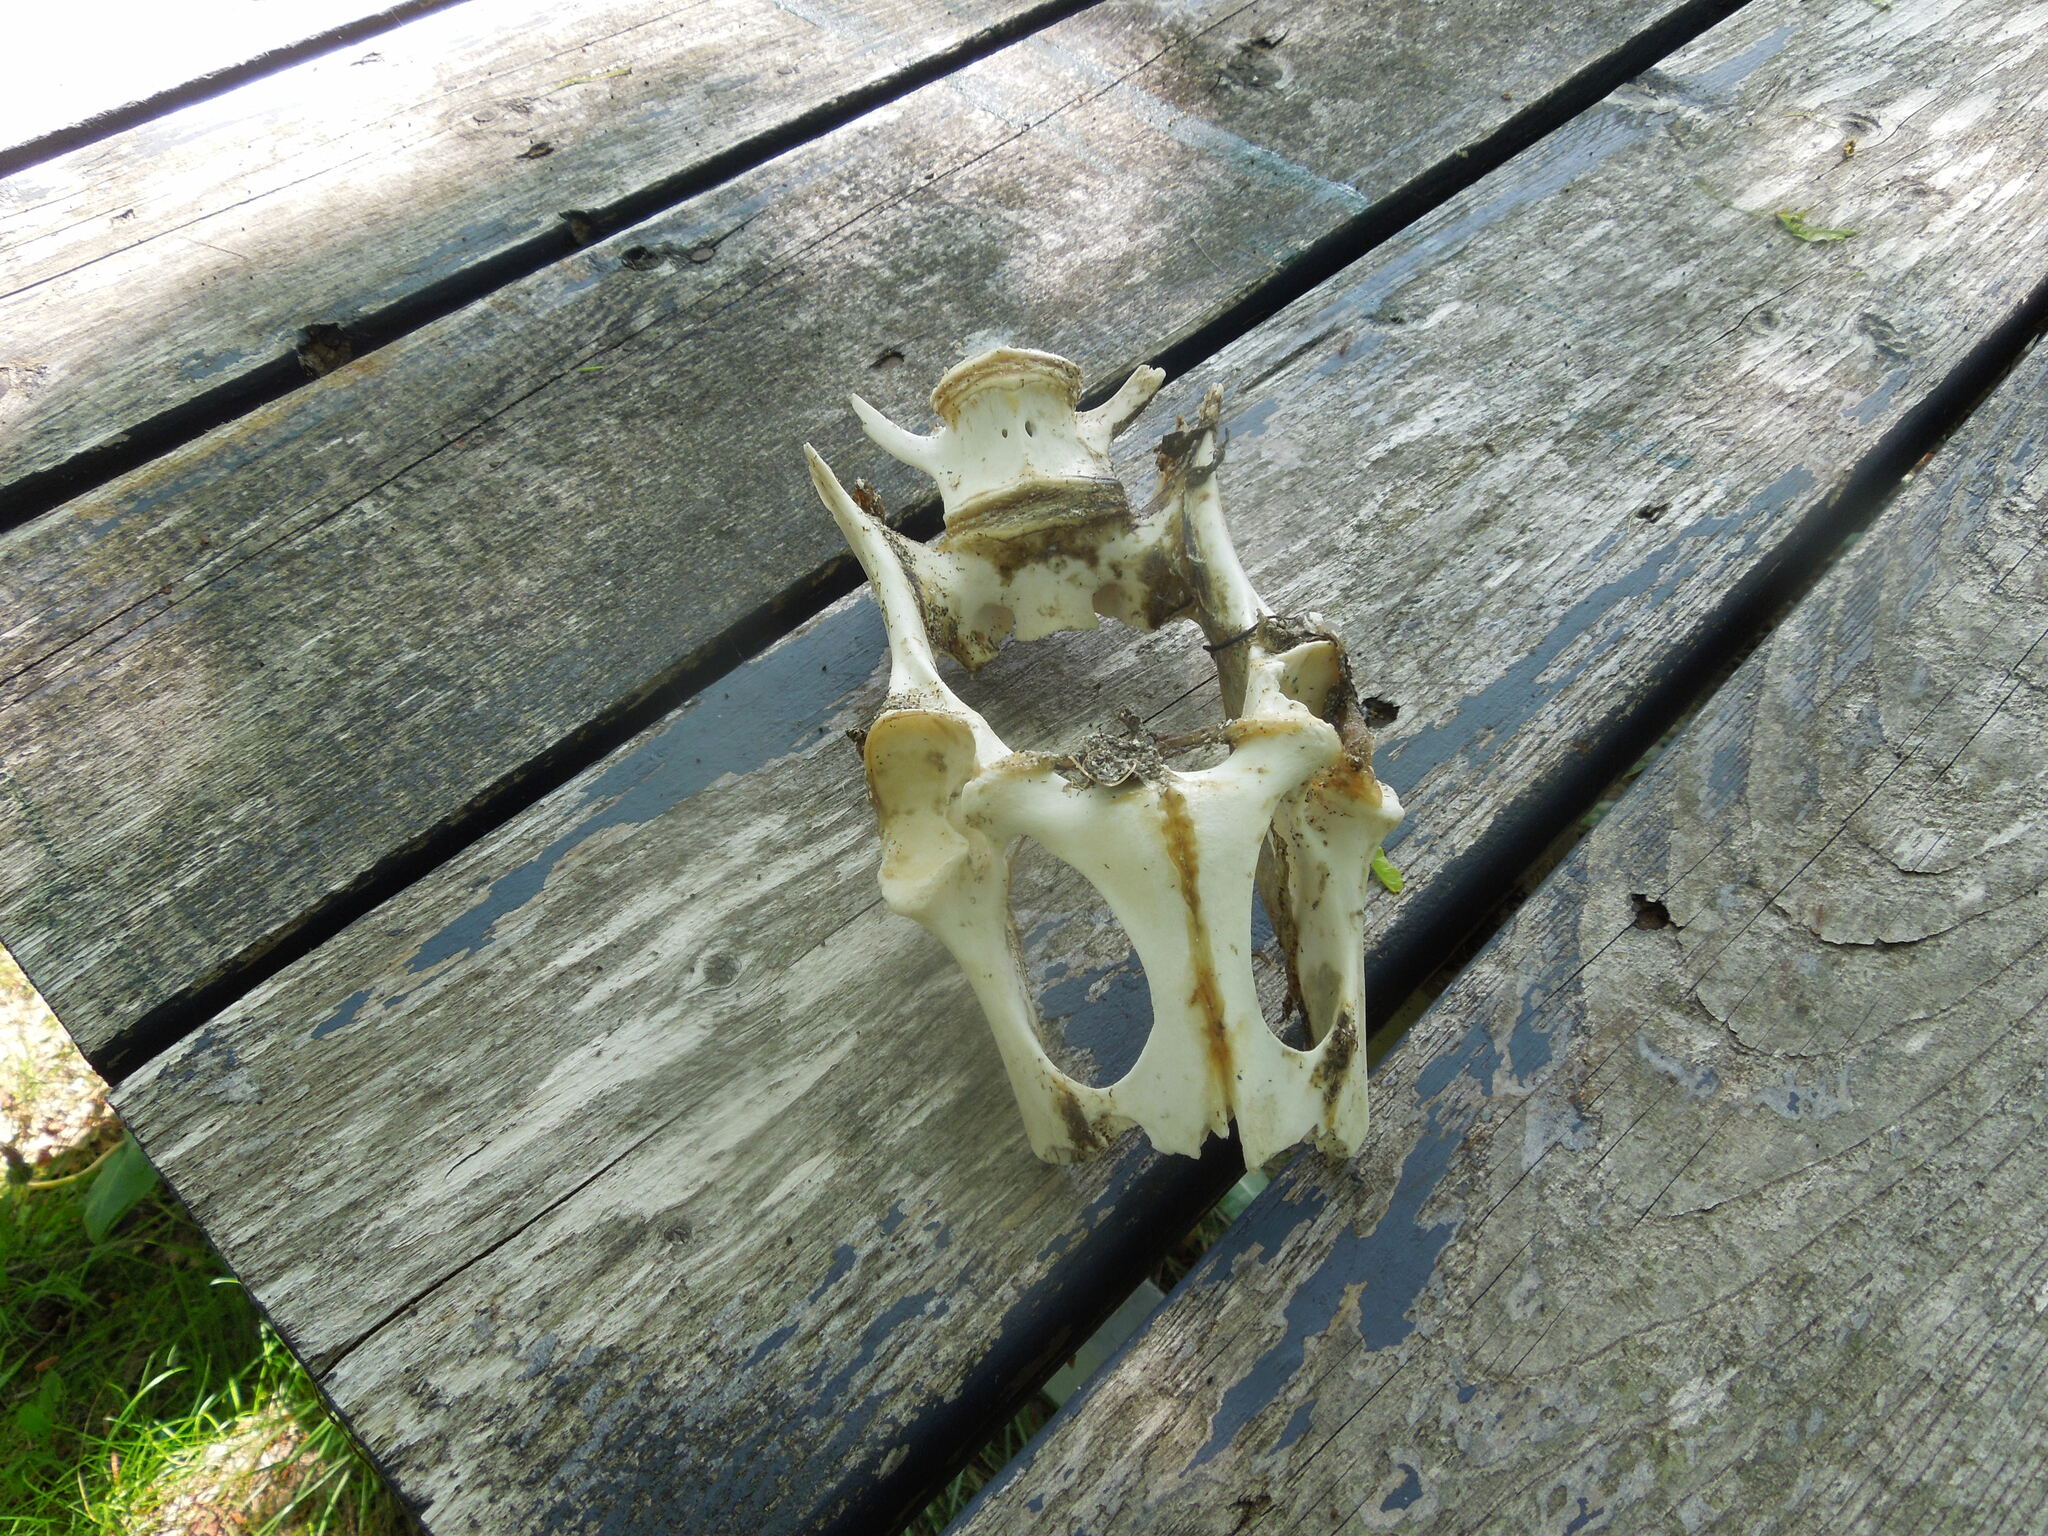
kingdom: Animalia
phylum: Chordata
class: Mammalia
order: Artiodactyla
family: Cervidae
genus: Odocoileus
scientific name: Odocoileus virginianus
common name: White-tailed deer
